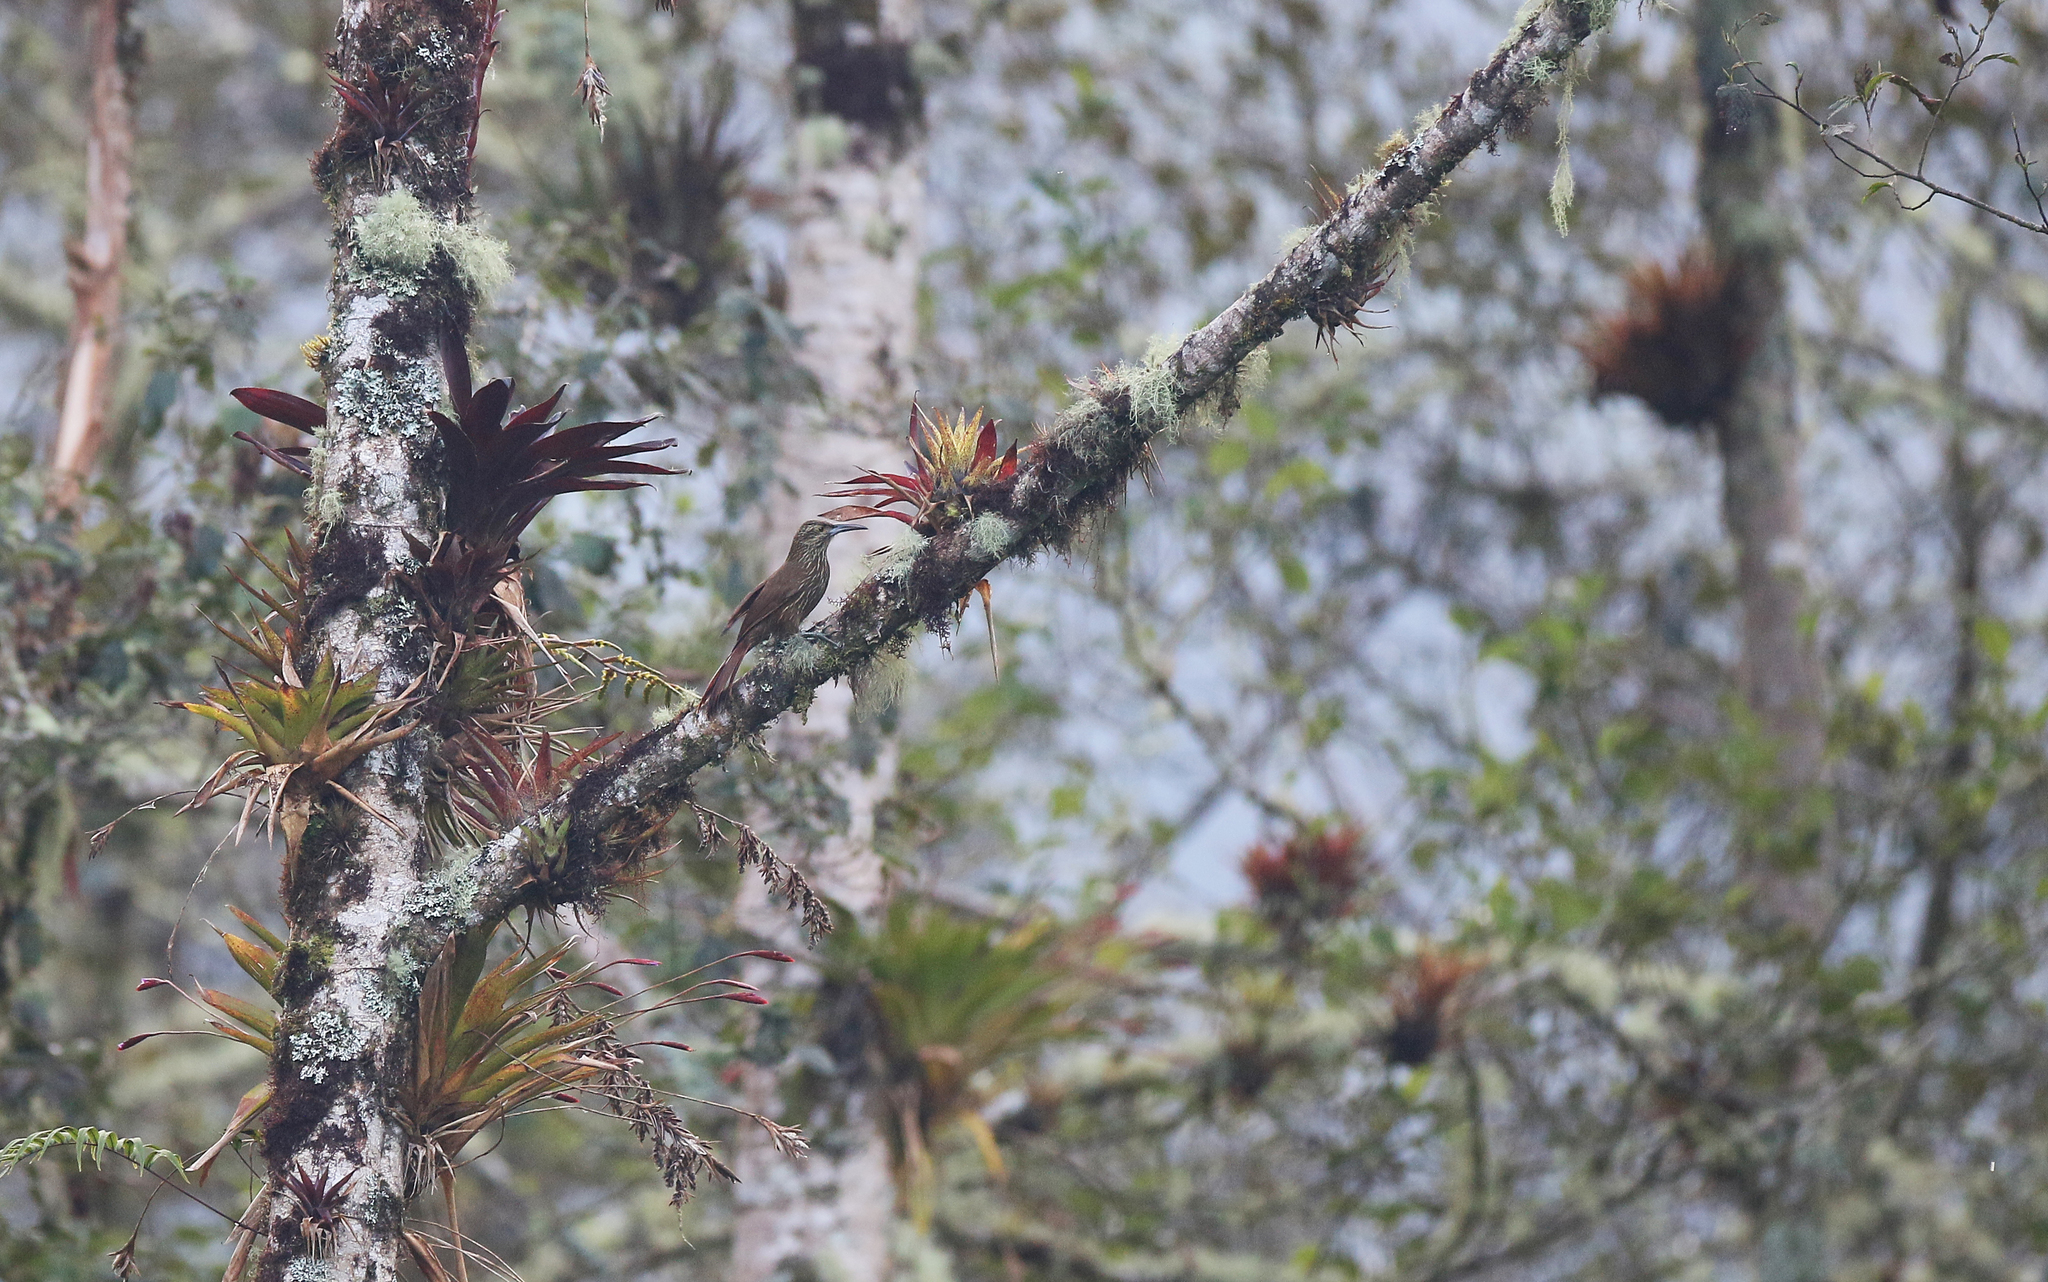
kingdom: Animalia
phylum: Chordata
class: Aves
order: Passeriformes
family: Furnariidae
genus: Lepidocolaptes
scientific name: Lepidocolaptes lacrymiger
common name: Montane woodcreeper
